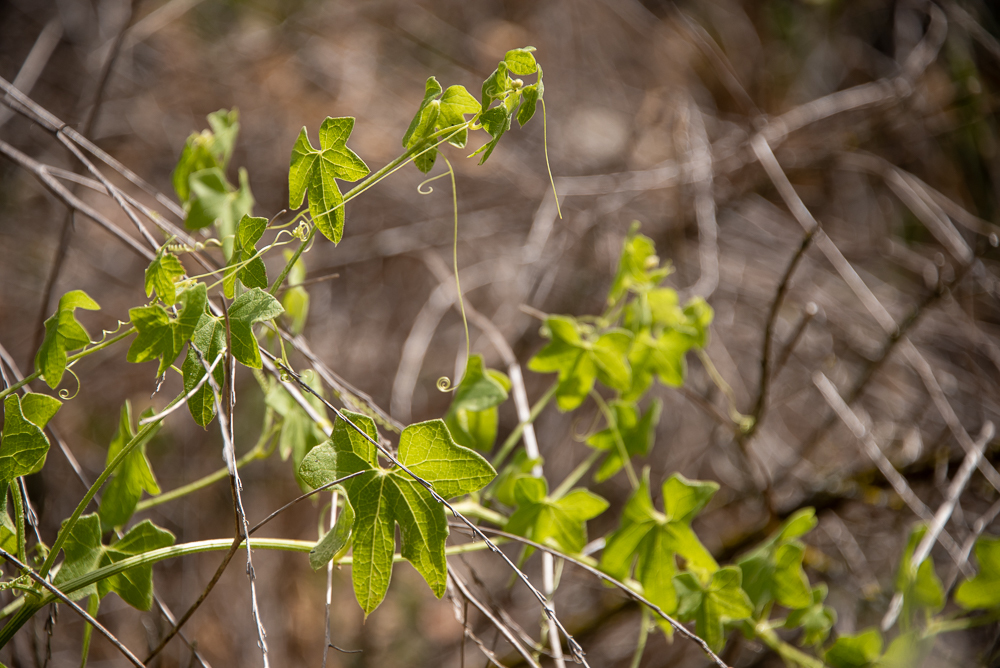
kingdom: Plantae
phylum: Tracheophyta
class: Magnoliopsida
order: Cucurbitales
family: Cucurbitaceae
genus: Marah
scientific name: Marah macrocarpa
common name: Cucamonga manroot
